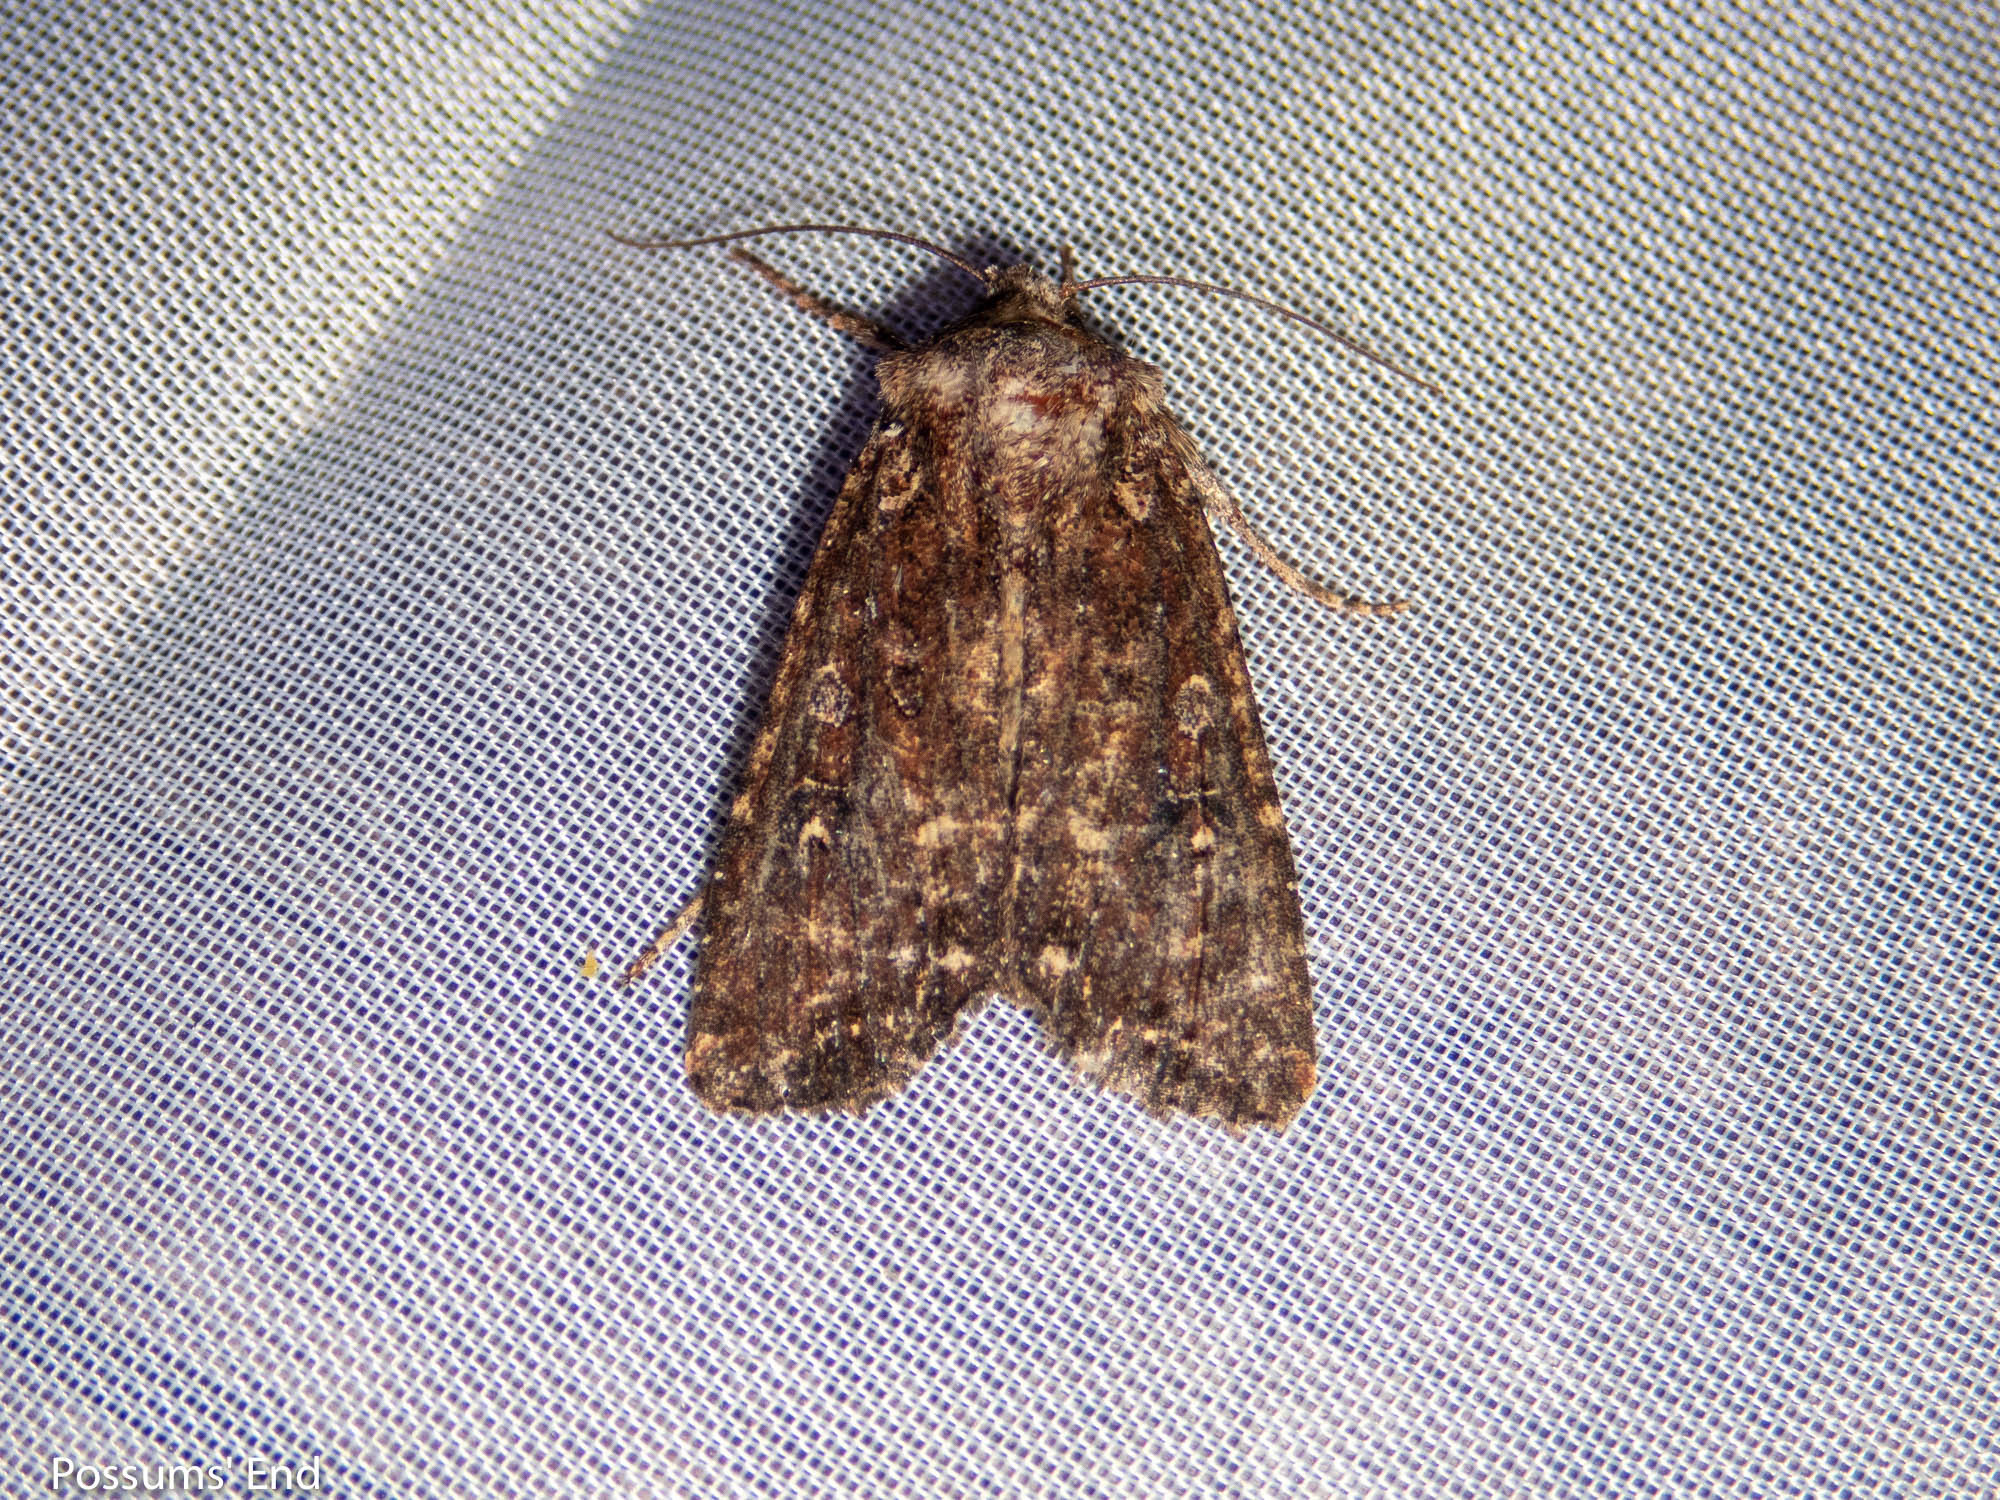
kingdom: Animalia
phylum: Arthropoda
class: Insecta
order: Lepidoptera
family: Noctuidae
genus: Ichneutica
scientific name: Ichneutica mustulenta
